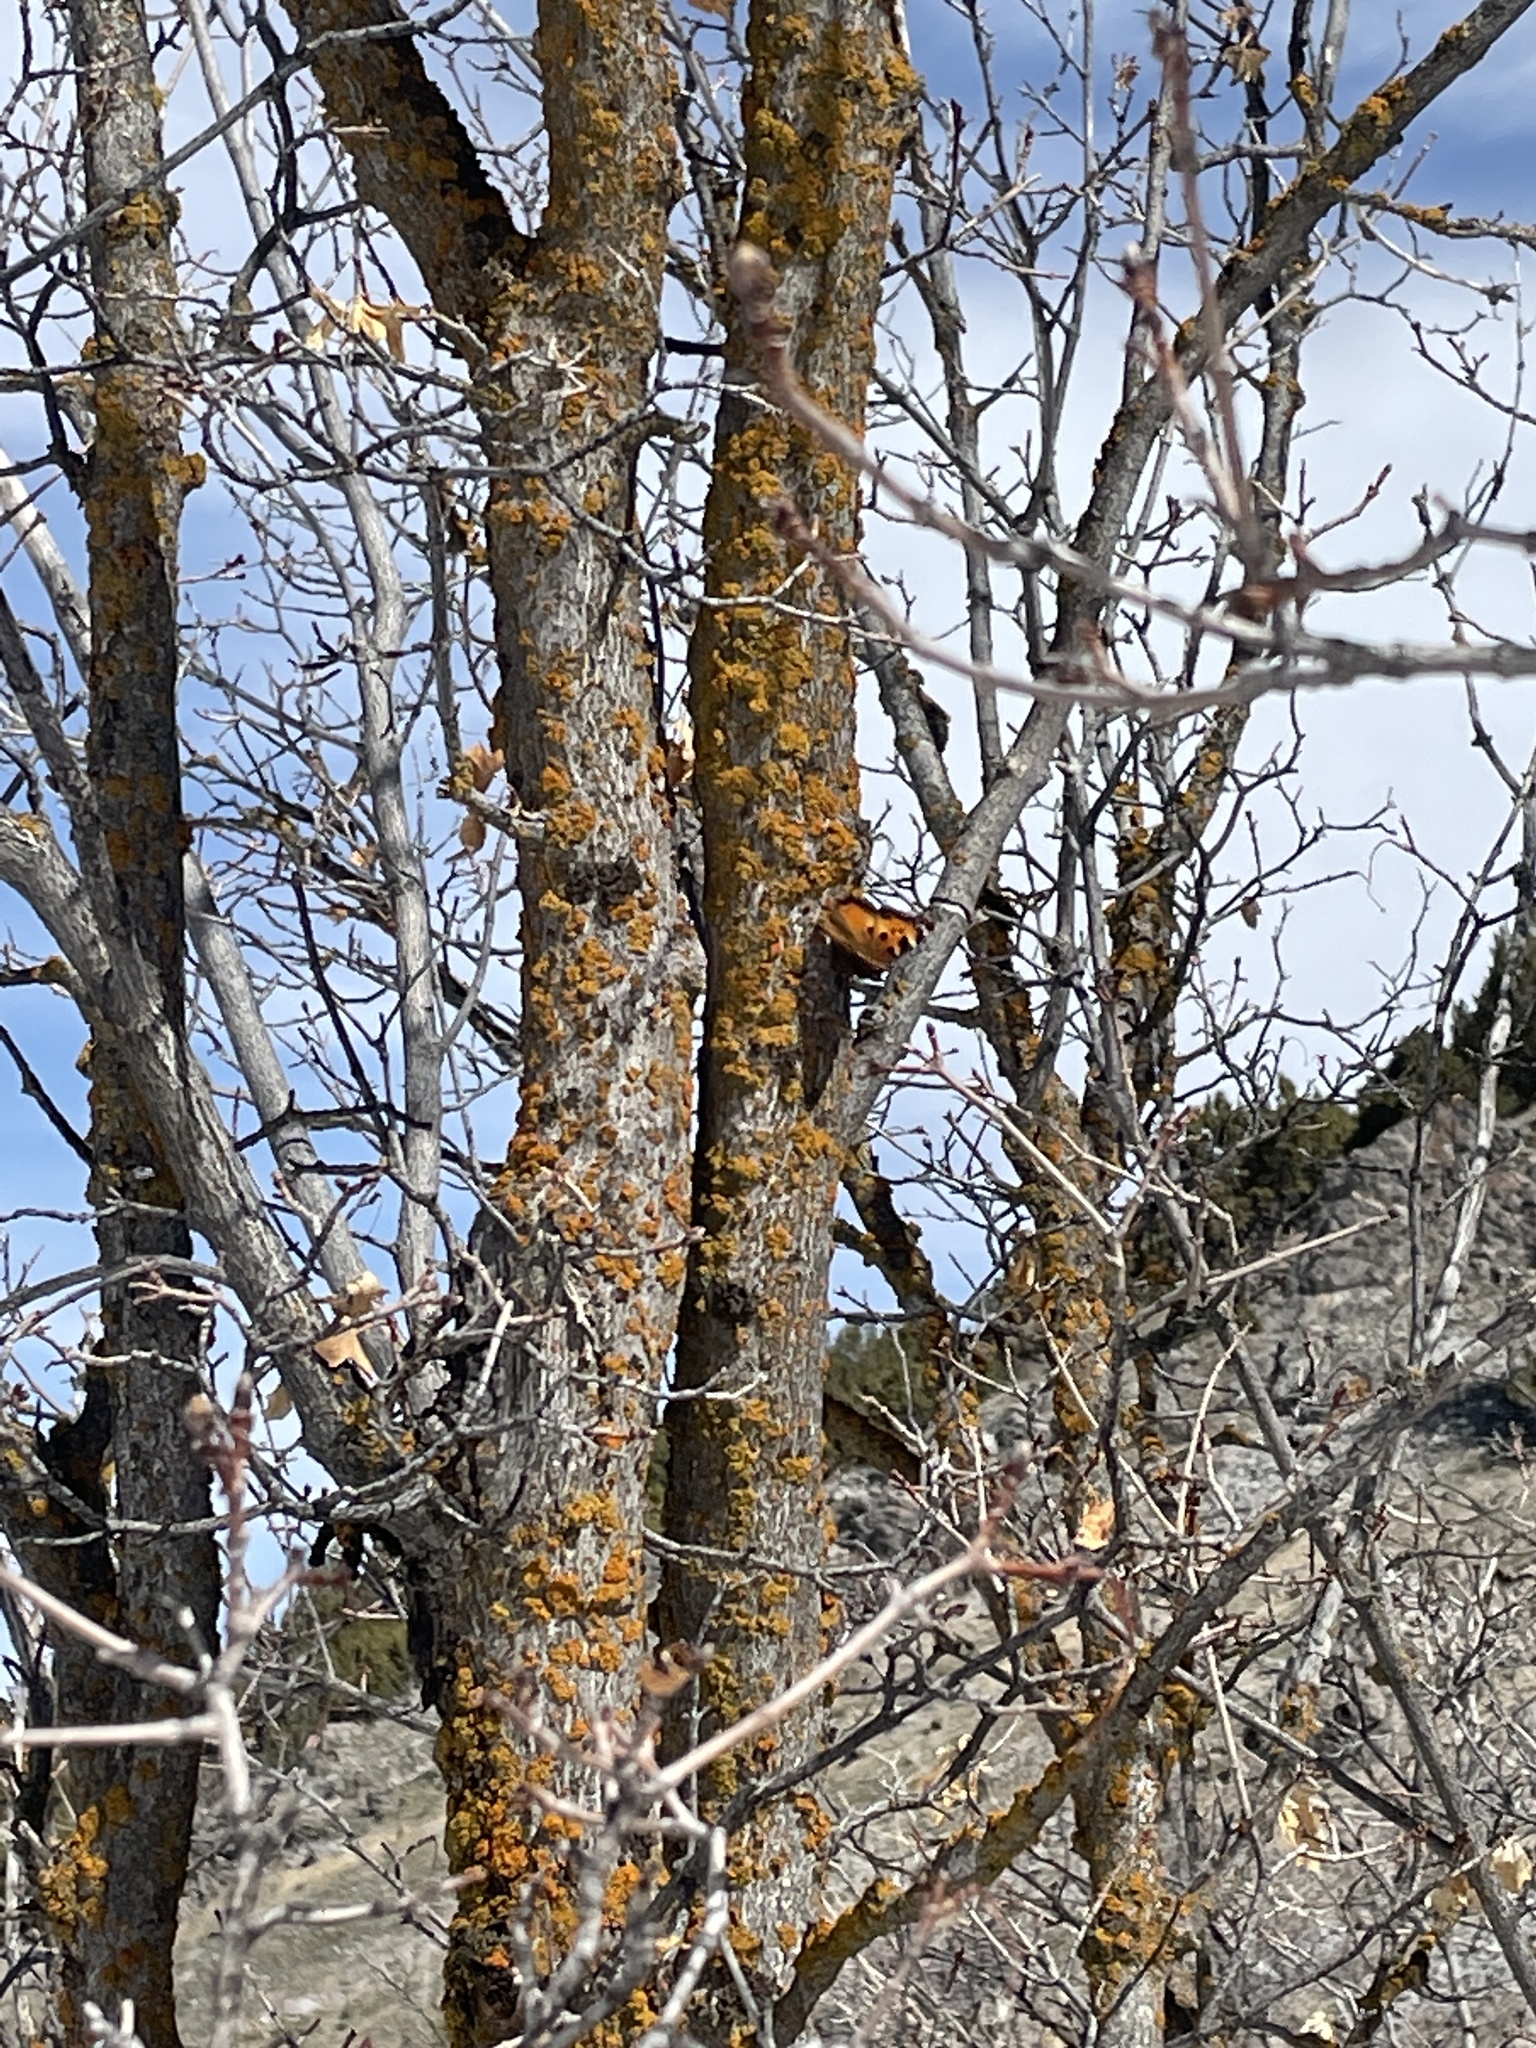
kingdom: Animalia
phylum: Arthropoda
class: Insecta
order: Lepidoptera
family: Nymphalidae
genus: Nymphalis
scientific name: Nymphalis californica
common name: California tortoiseshell
